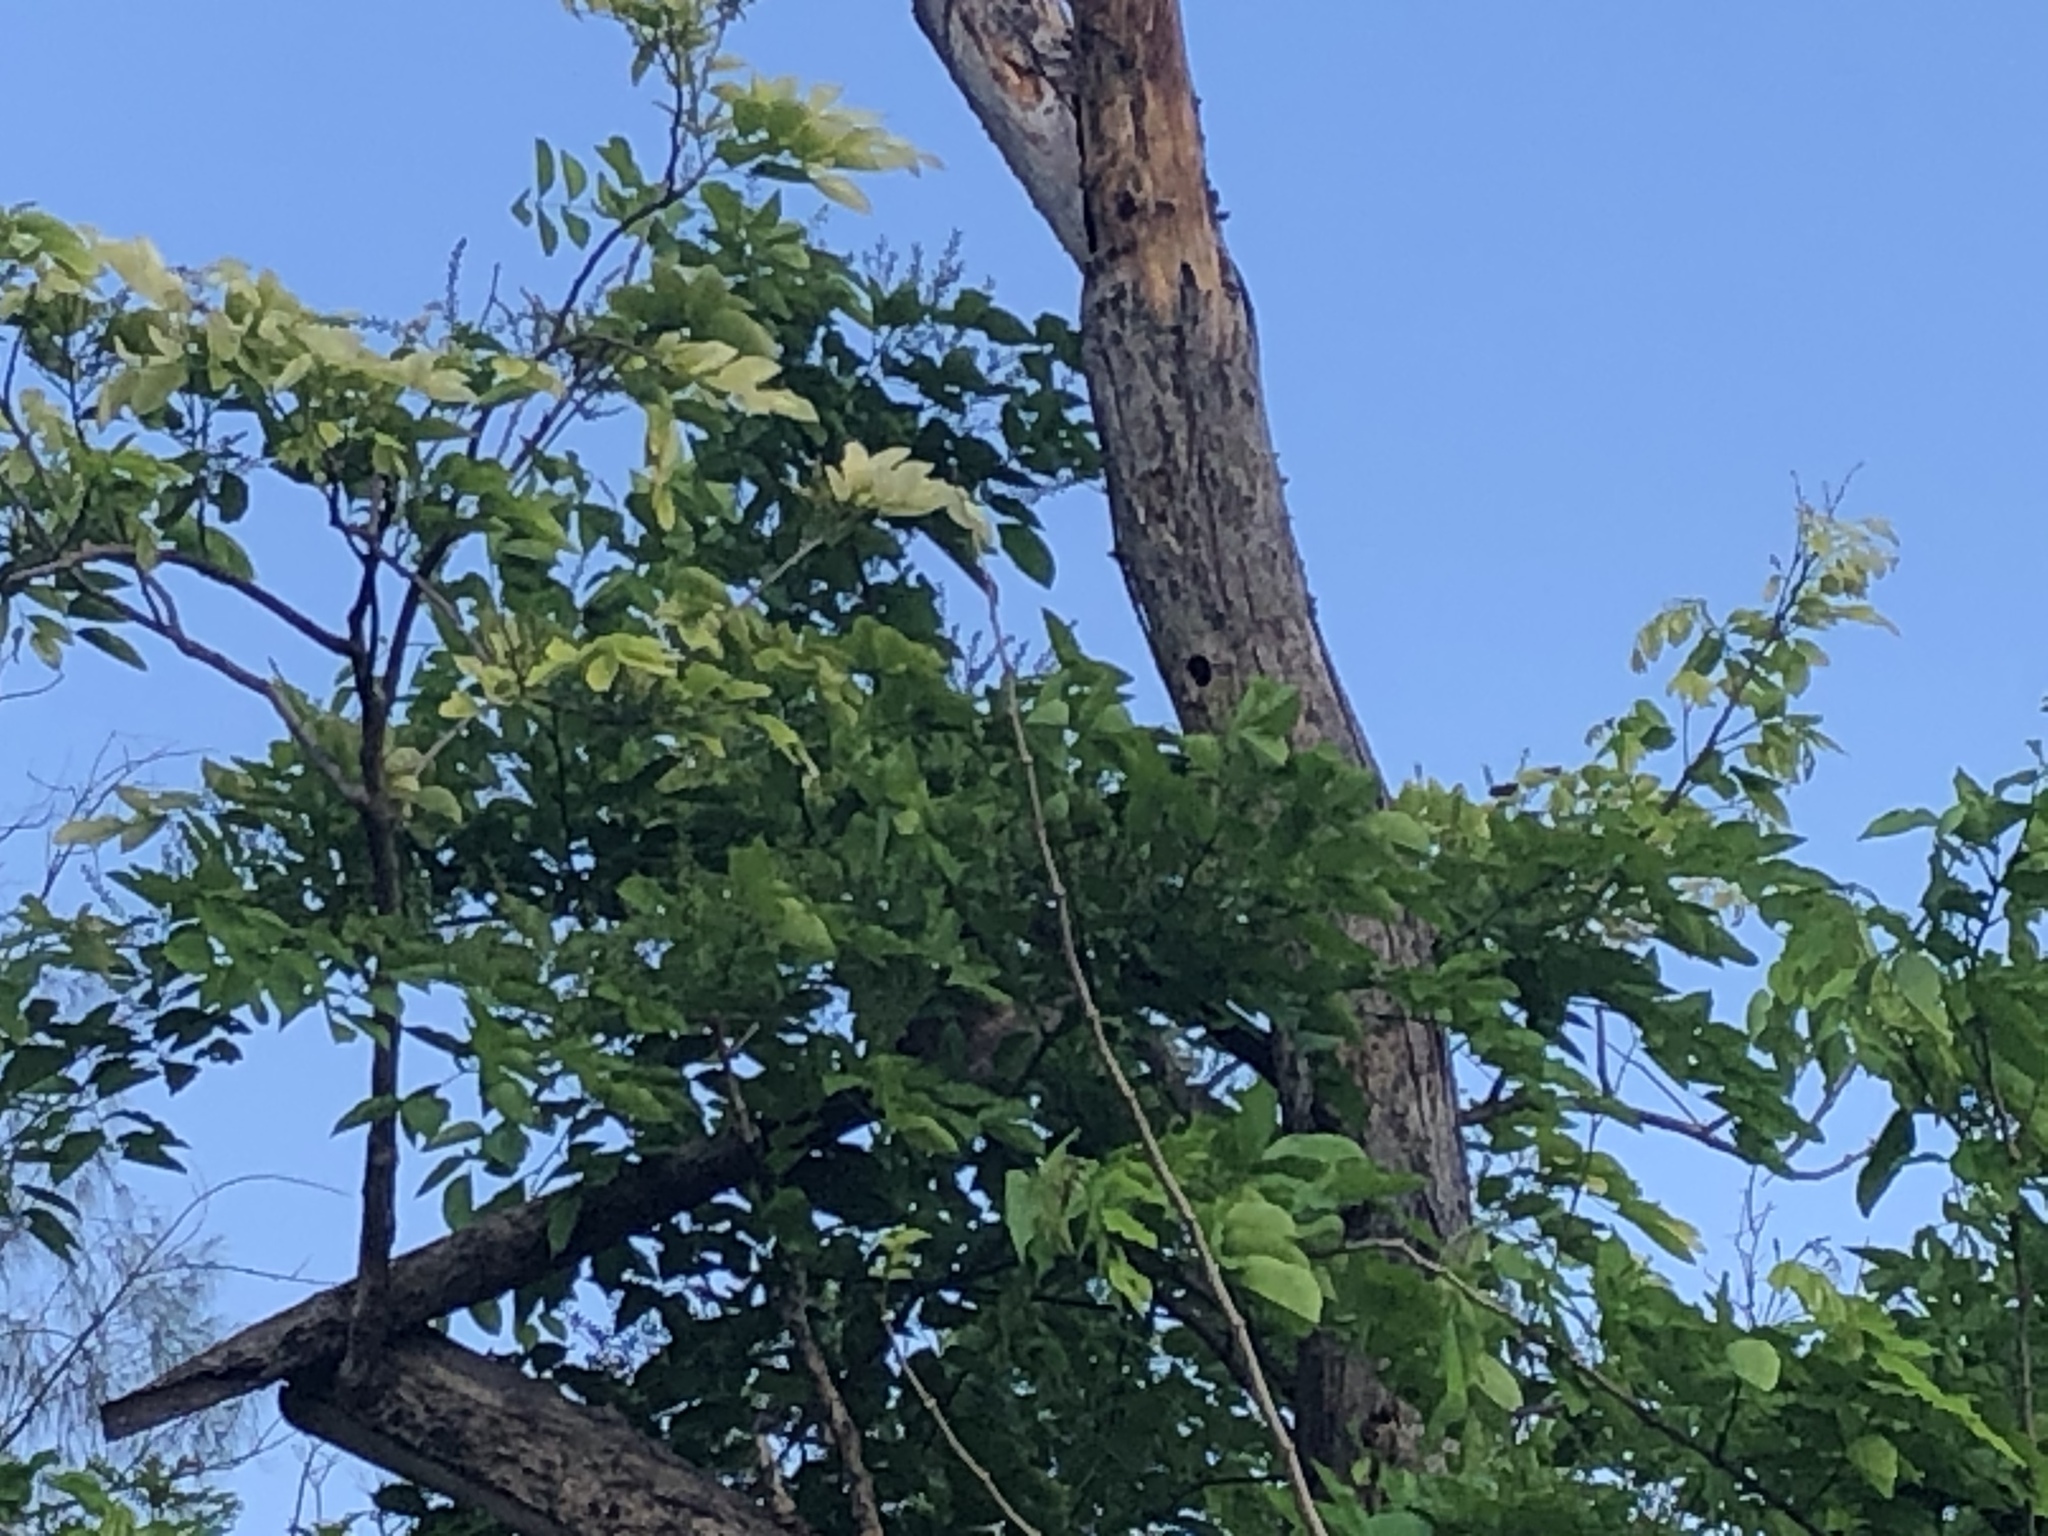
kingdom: Animalia
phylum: Chordata
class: Aves
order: Piciformes
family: Megalaimidae
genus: Psilopogon
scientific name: Psilopogon haemacephalus
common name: Coppersmith barbet
